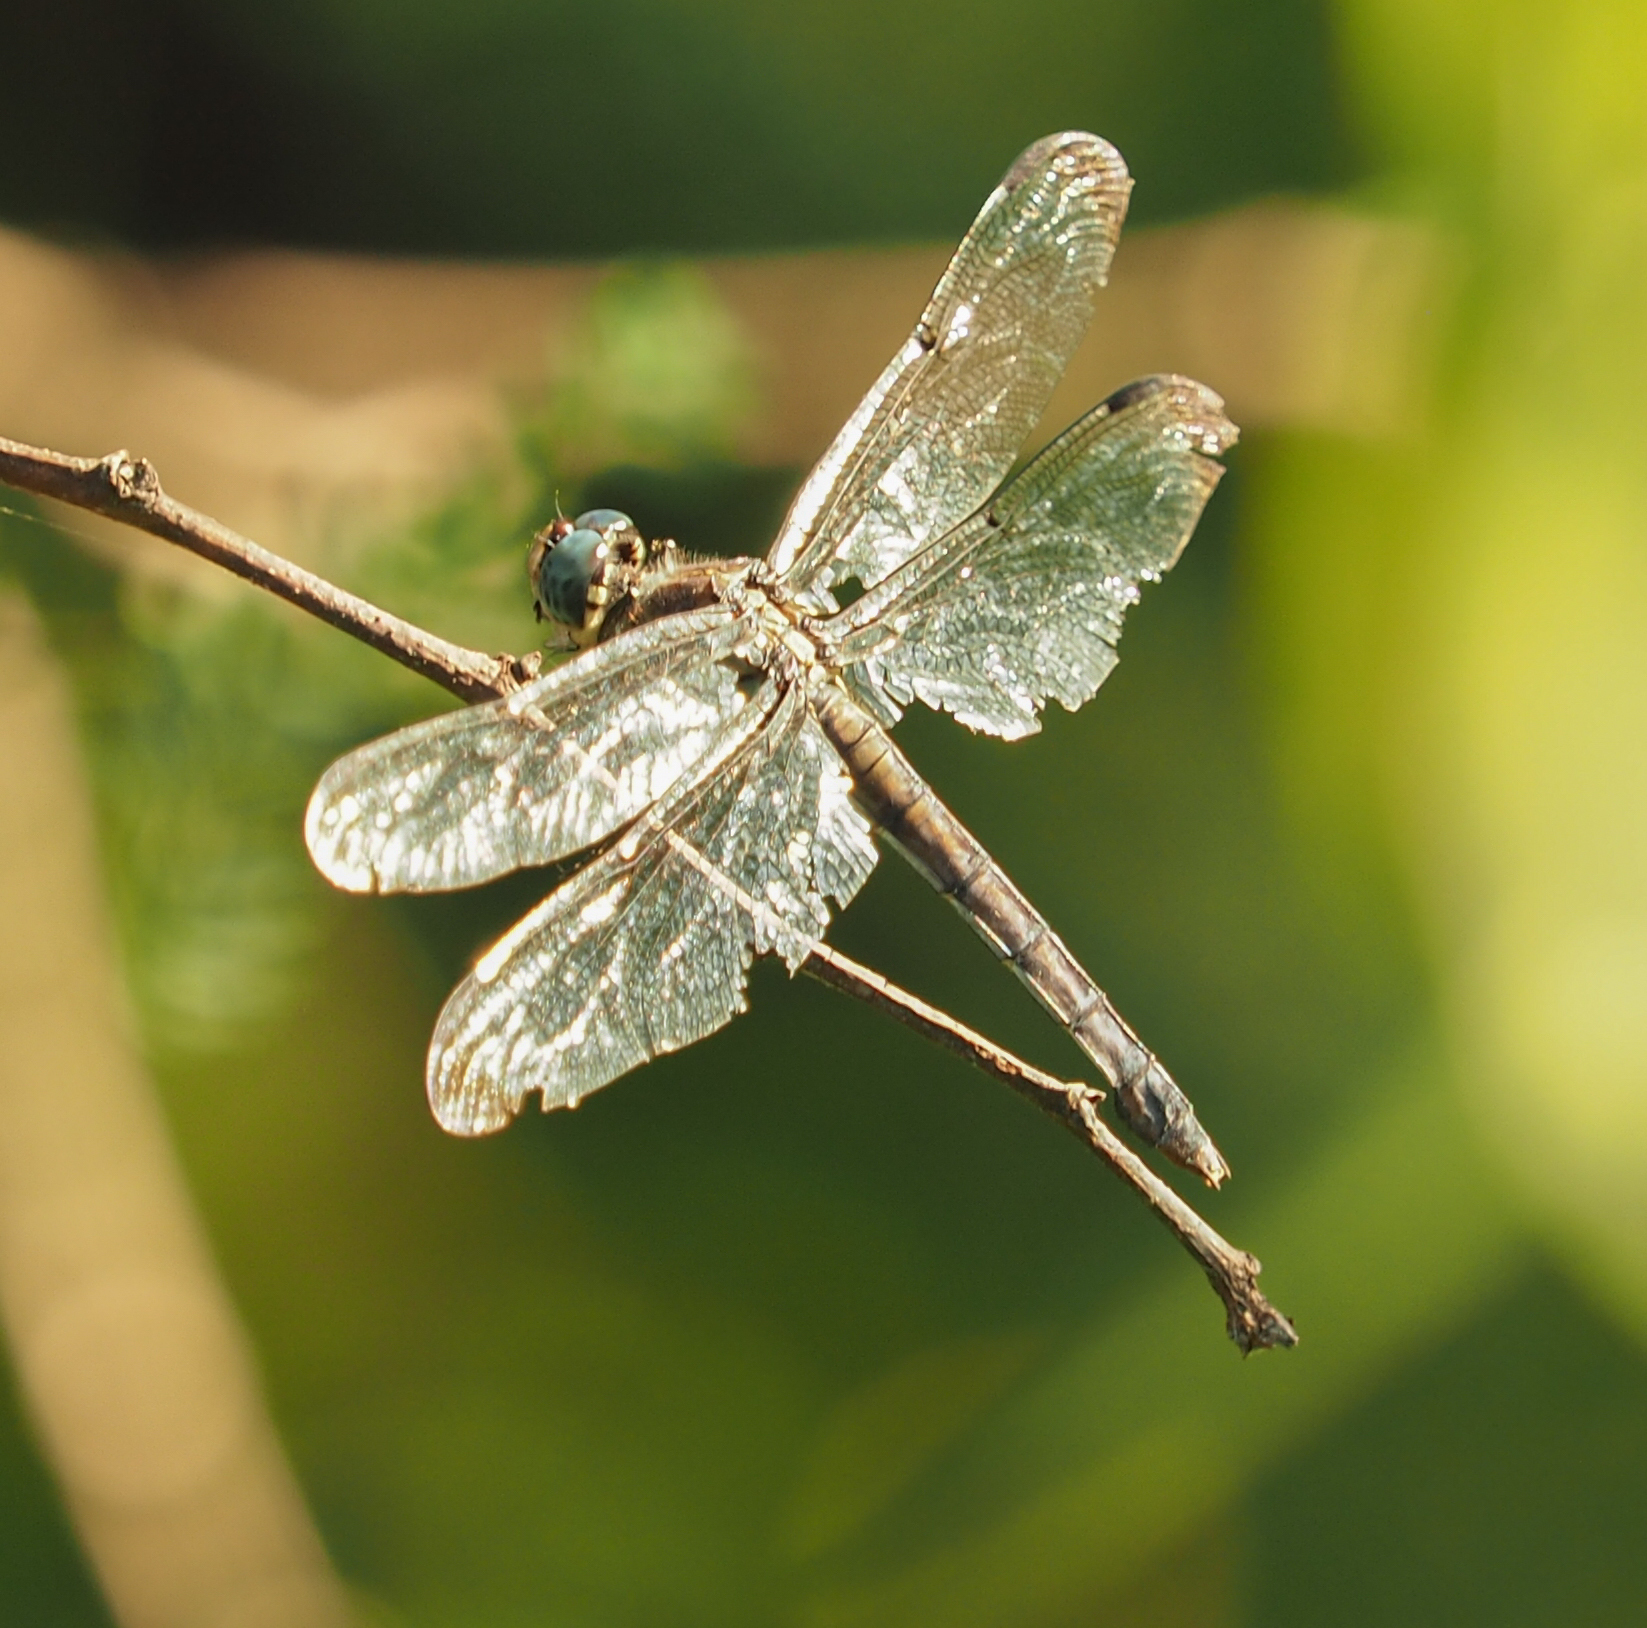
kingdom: Animalia
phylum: Arthropoda
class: Insecta
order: Odonata
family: Libellulidae
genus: Libellula
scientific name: Libellula vibrans
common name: Great blue skimmer
